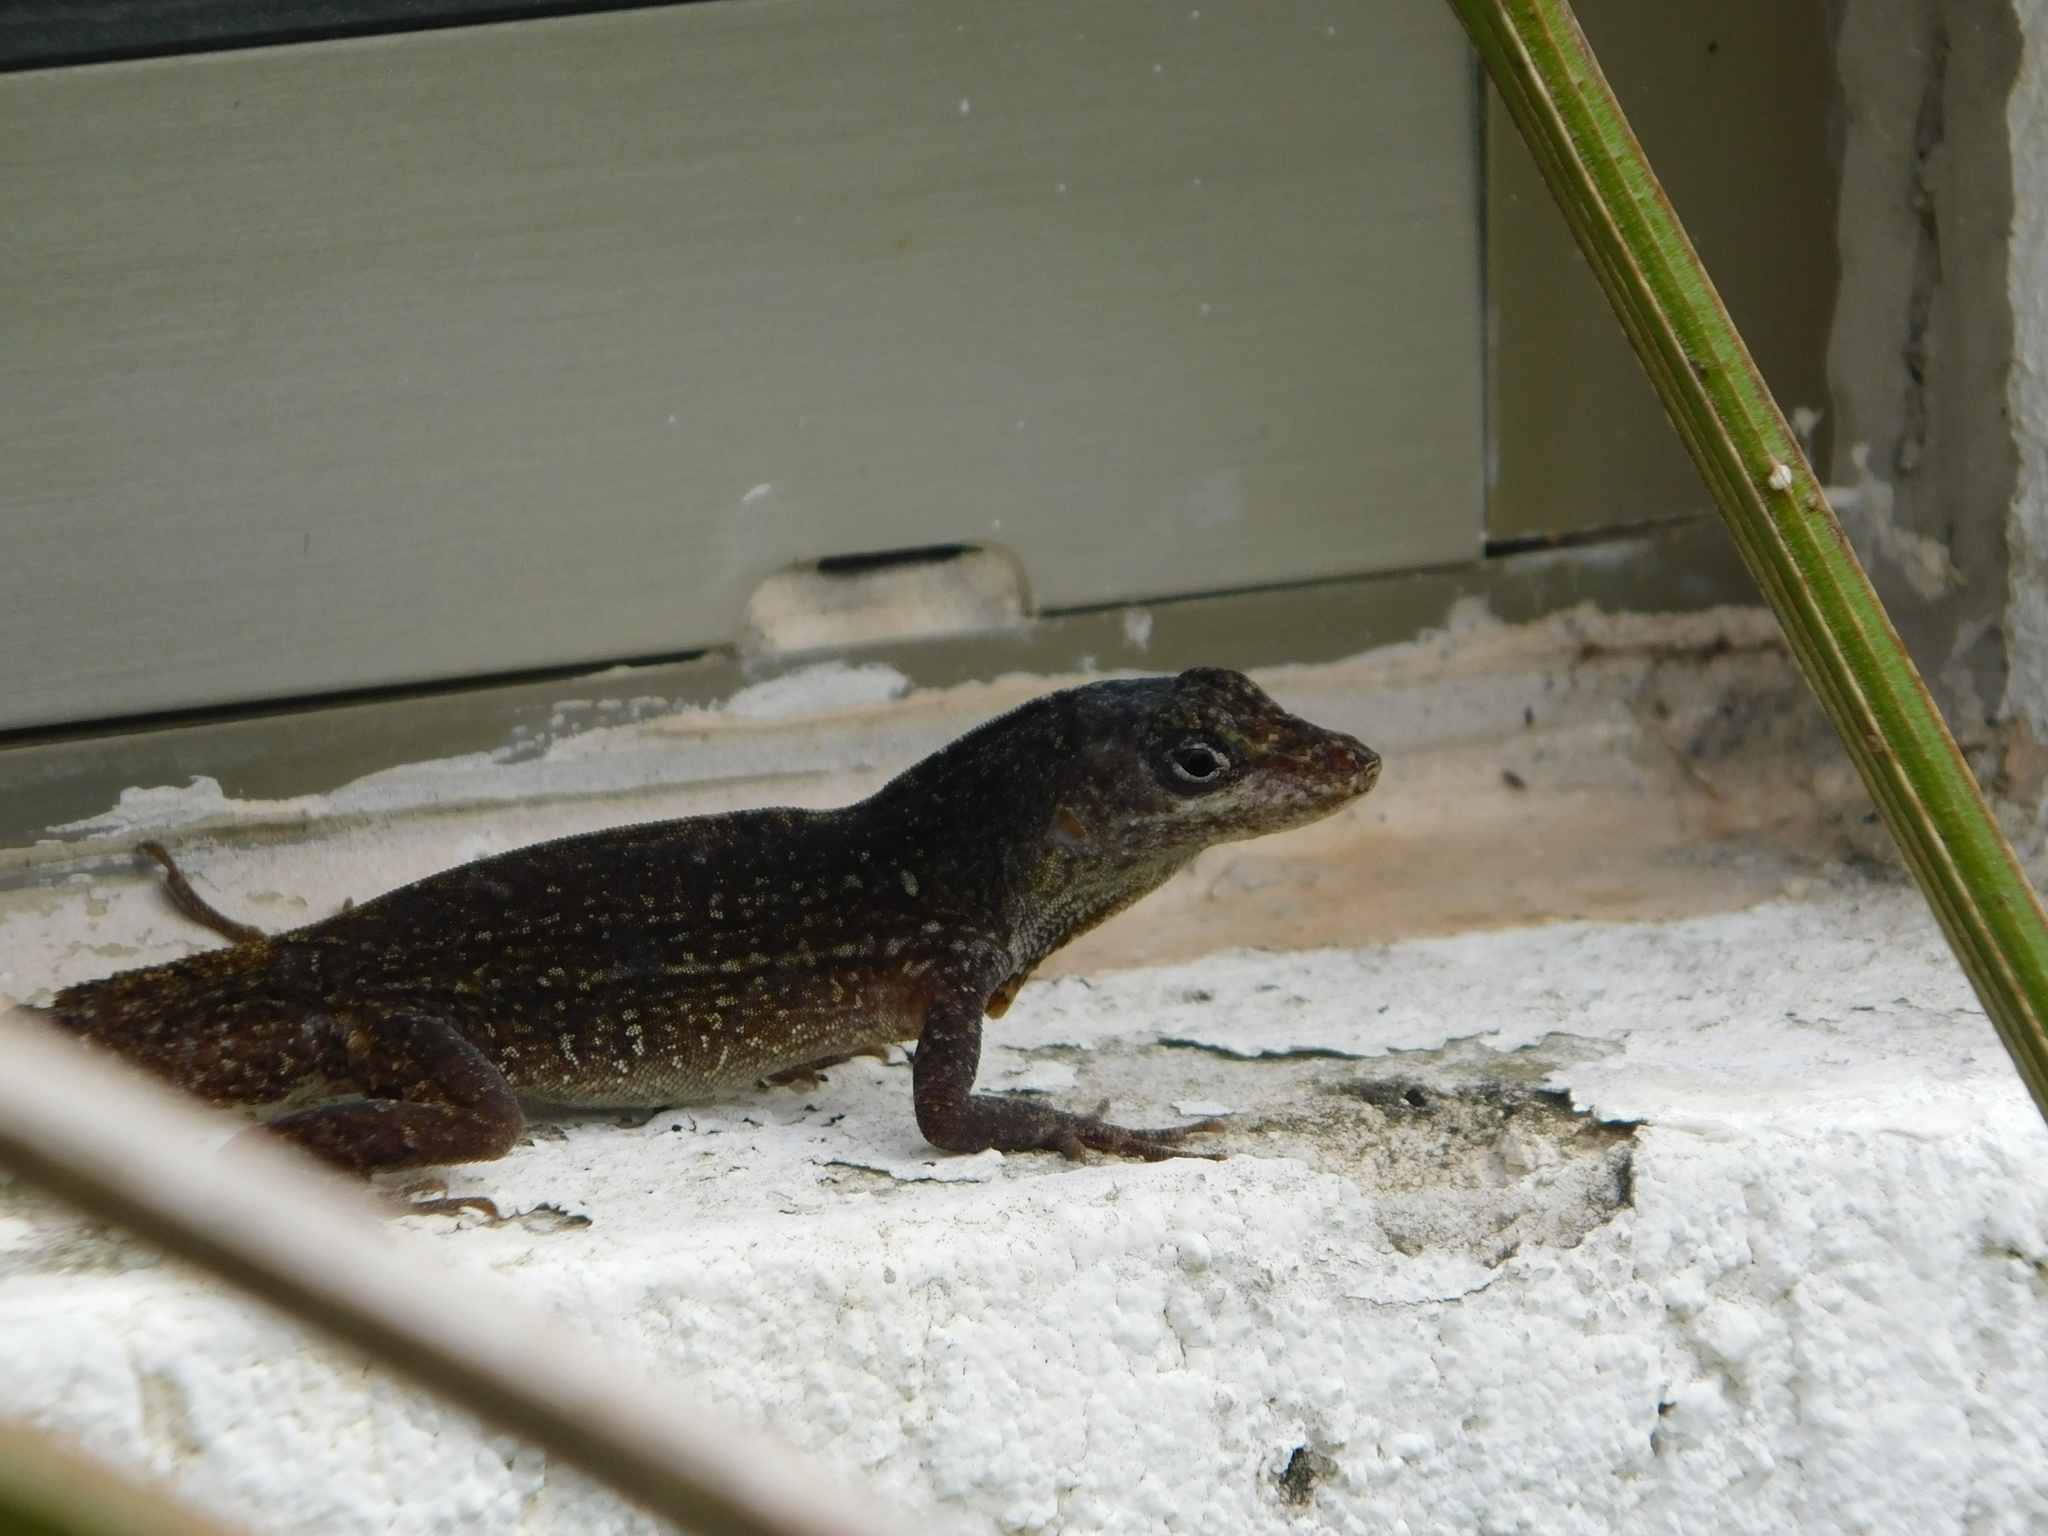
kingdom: Animalia
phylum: Chordata
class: Squamata
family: Dactyloidae
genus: Anolis
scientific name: Anolis sagrei
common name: Brown anole
